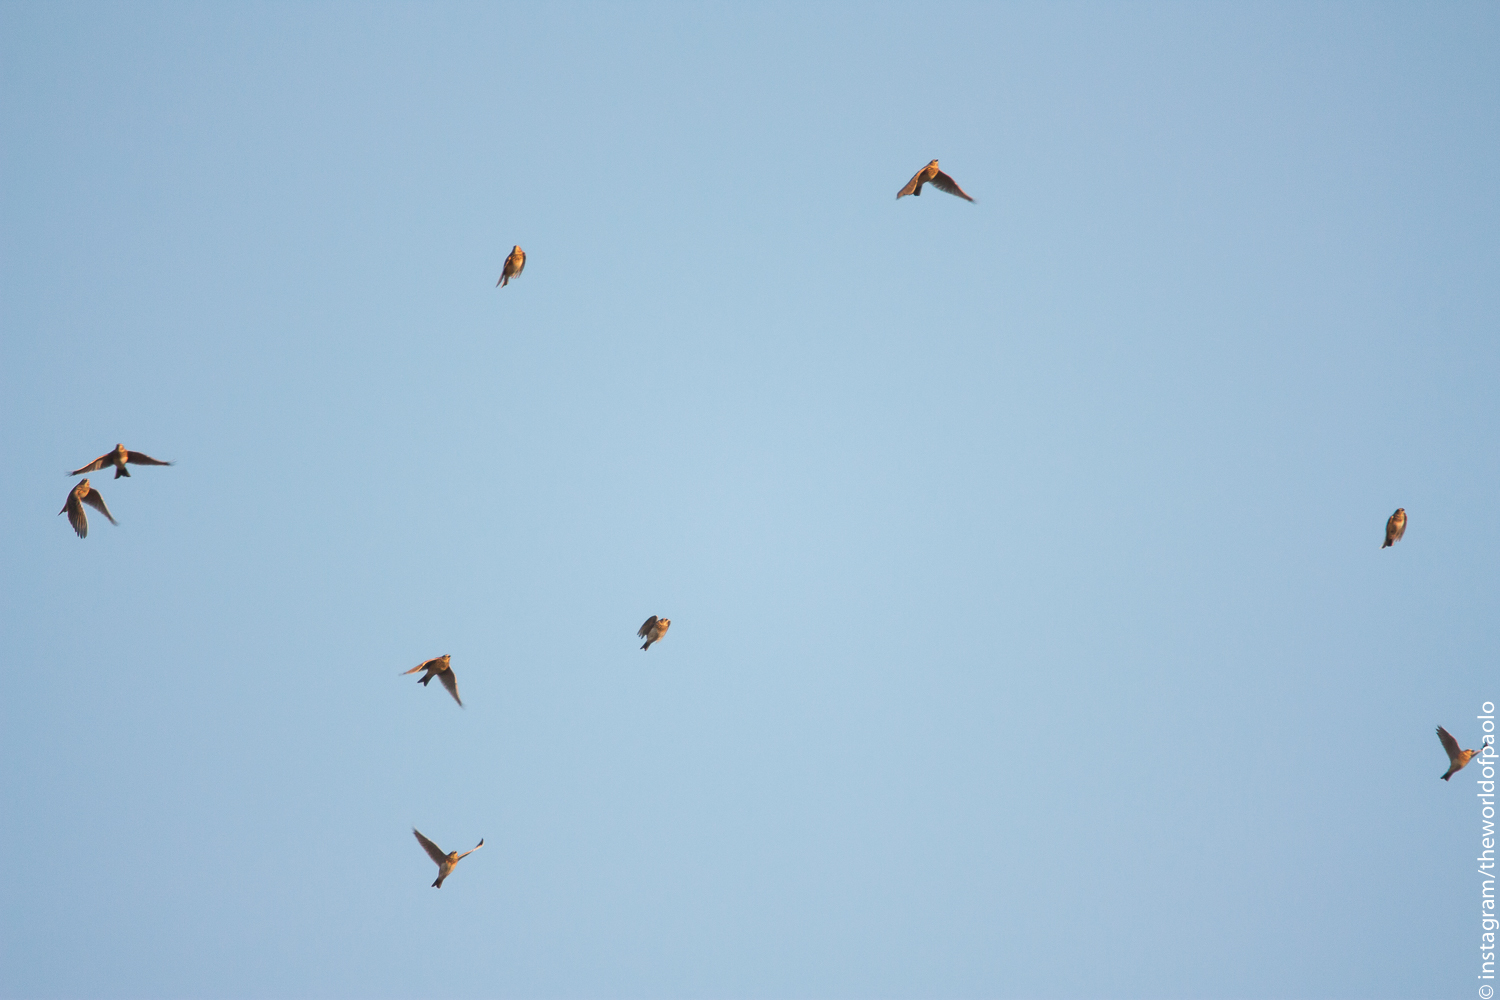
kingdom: Animalia
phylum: Chordata
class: Aves
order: Passeriformes
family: Alaudidae
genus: Alauda
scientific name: Alauda arvensis
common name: Eurasian skylark
